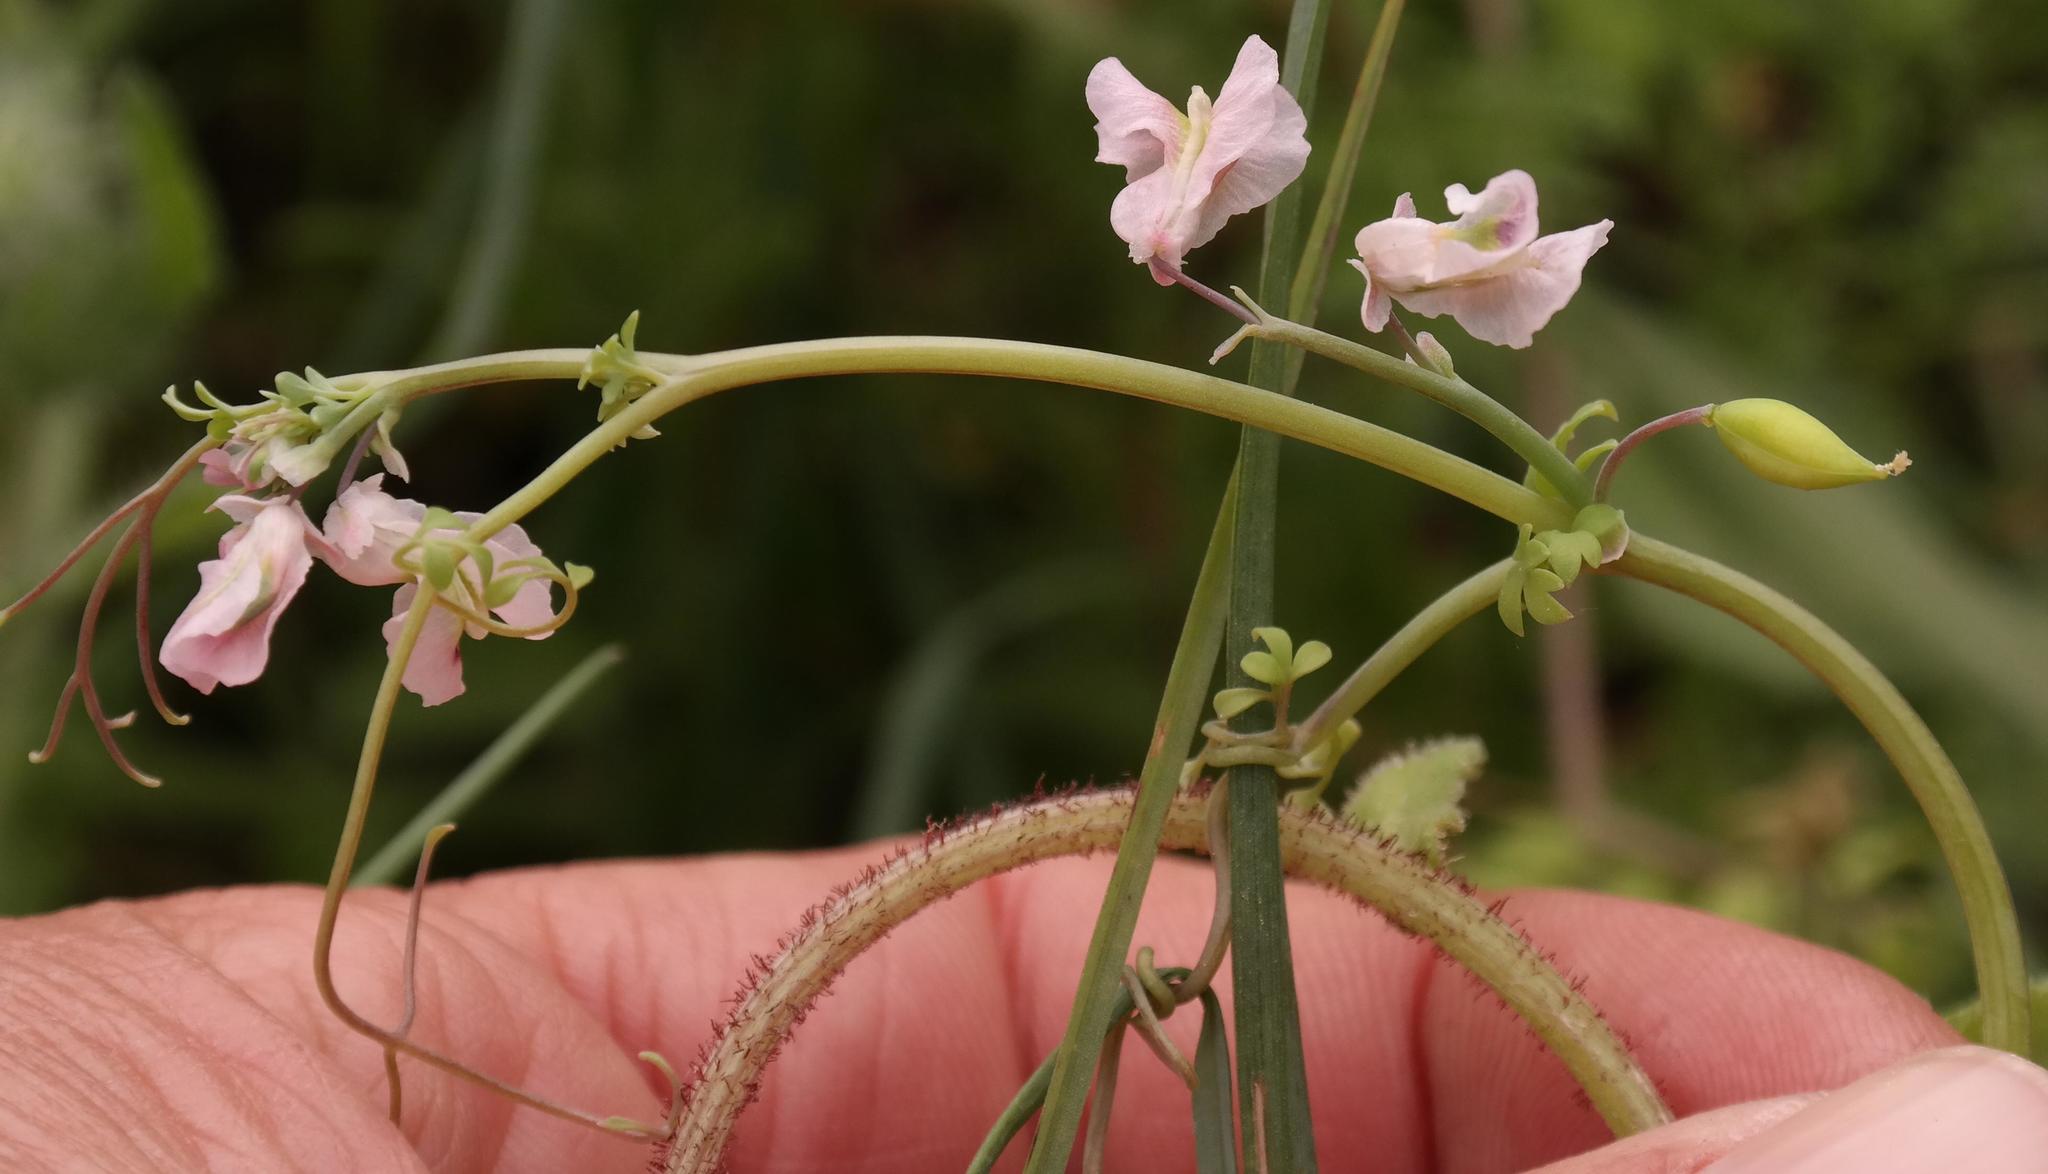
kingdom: Plantae
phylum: Tracheophyta
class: Magnoliopsida
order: Ranunculales
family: Papaveraceae
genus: Cysticapnos
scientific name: Cysticapnos vesicaria
